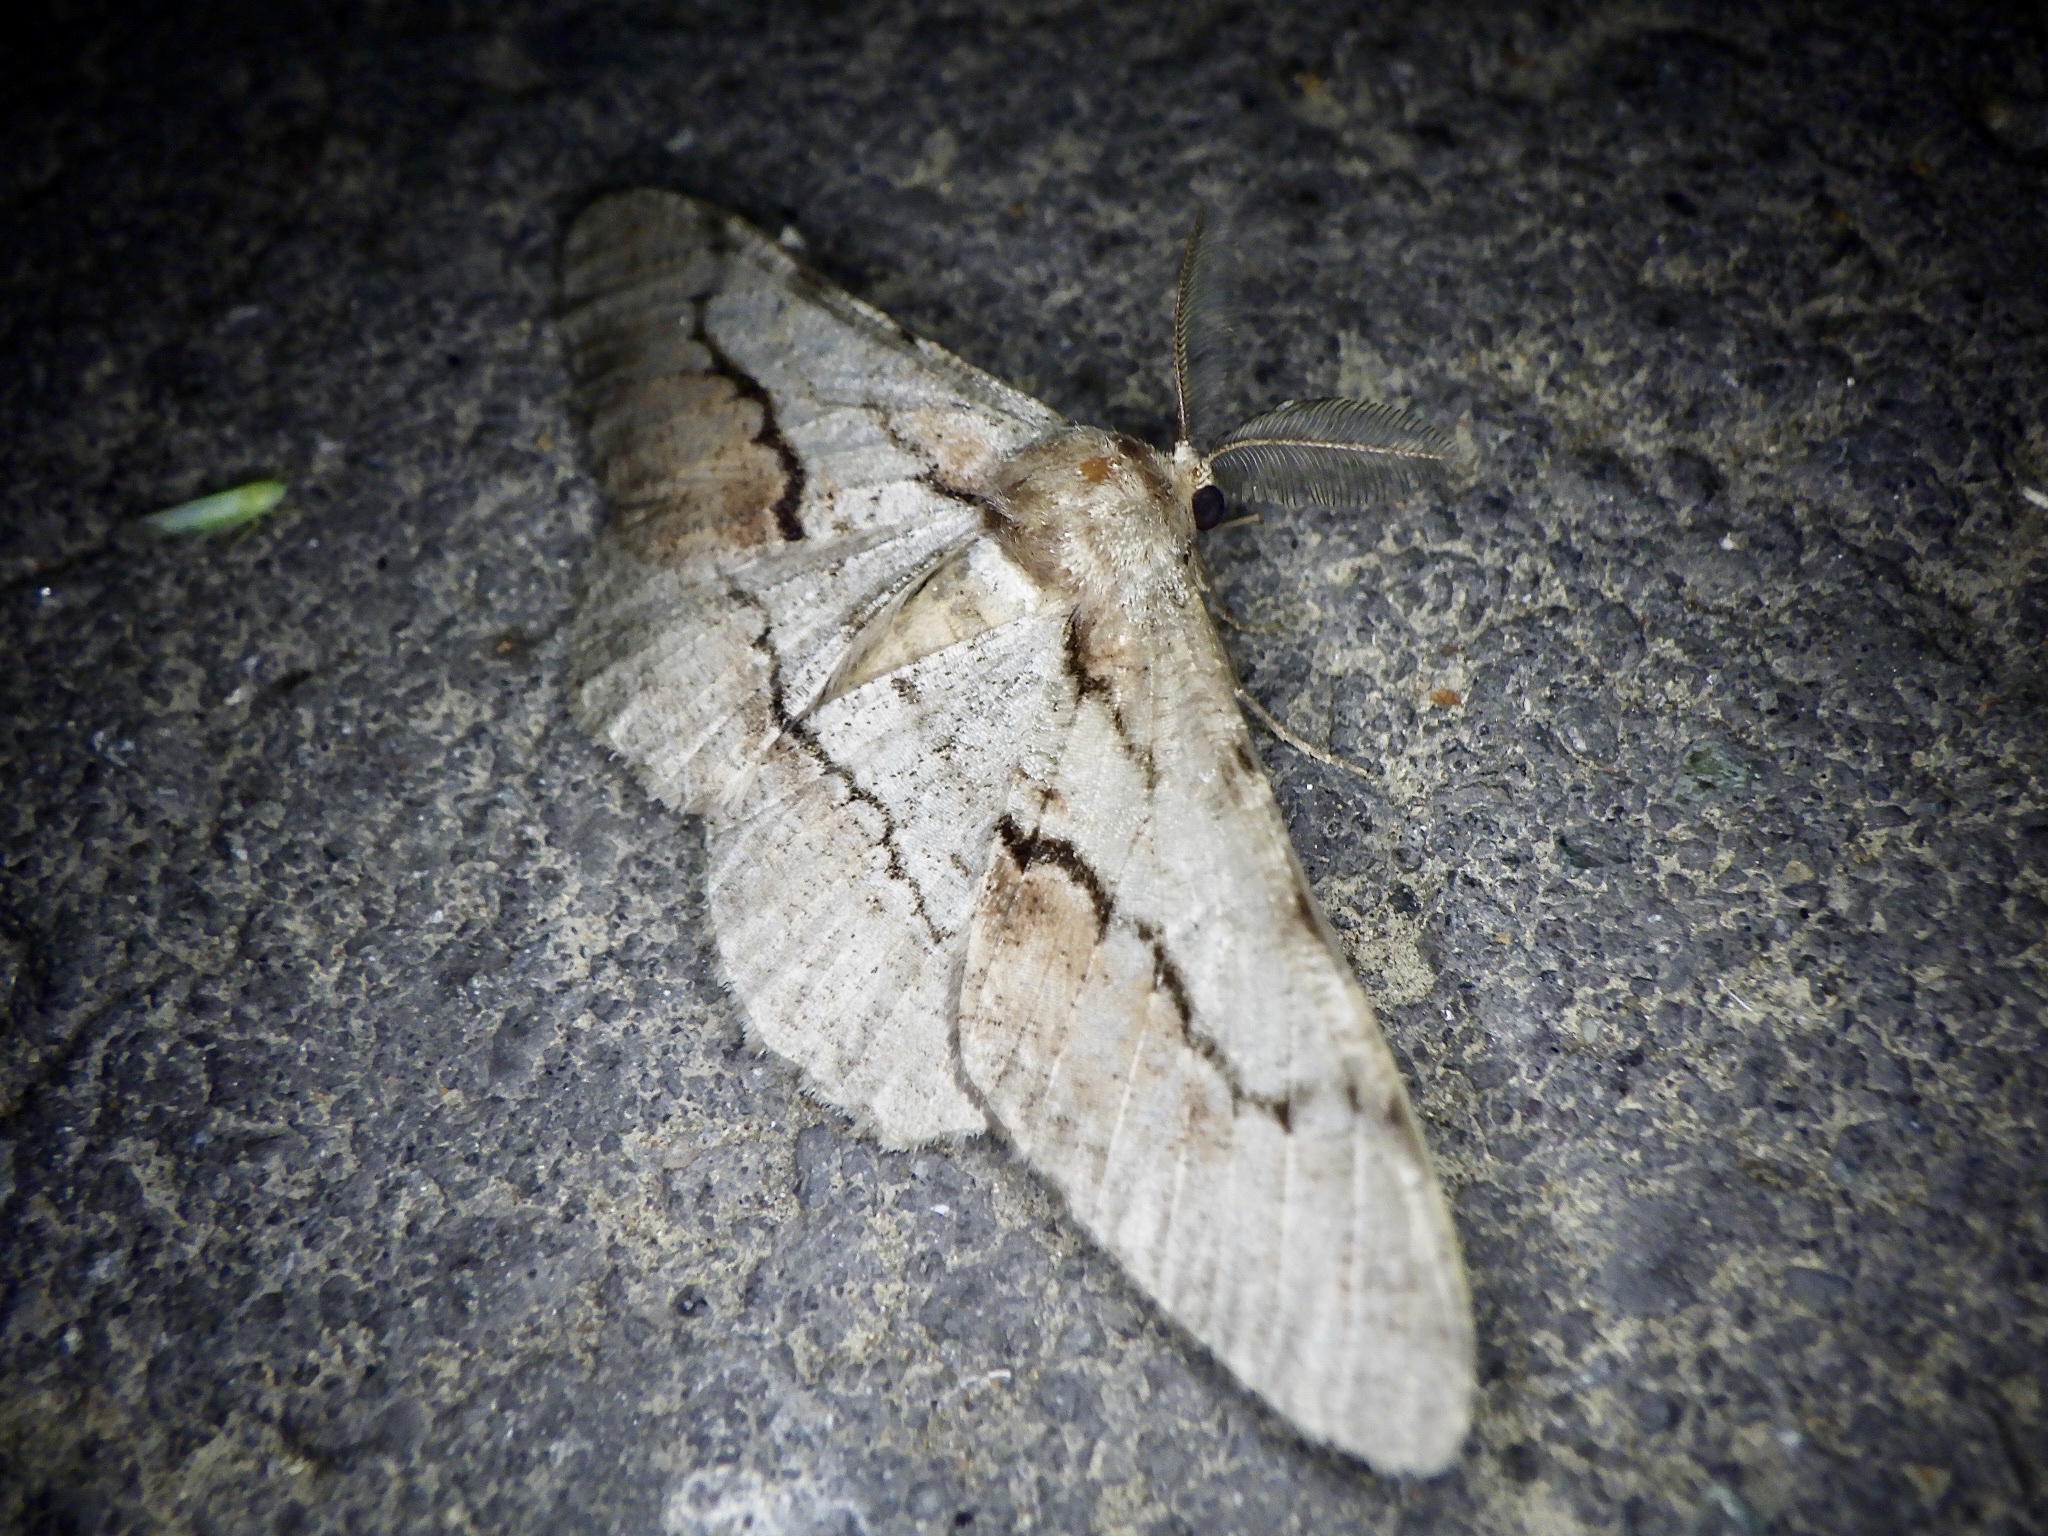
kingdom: Animalia
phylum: Arthropoda
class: Insecta
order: Lepidoptera
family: Geometridae
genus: Phthonosema
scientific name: Phthonosema tendinosaria
